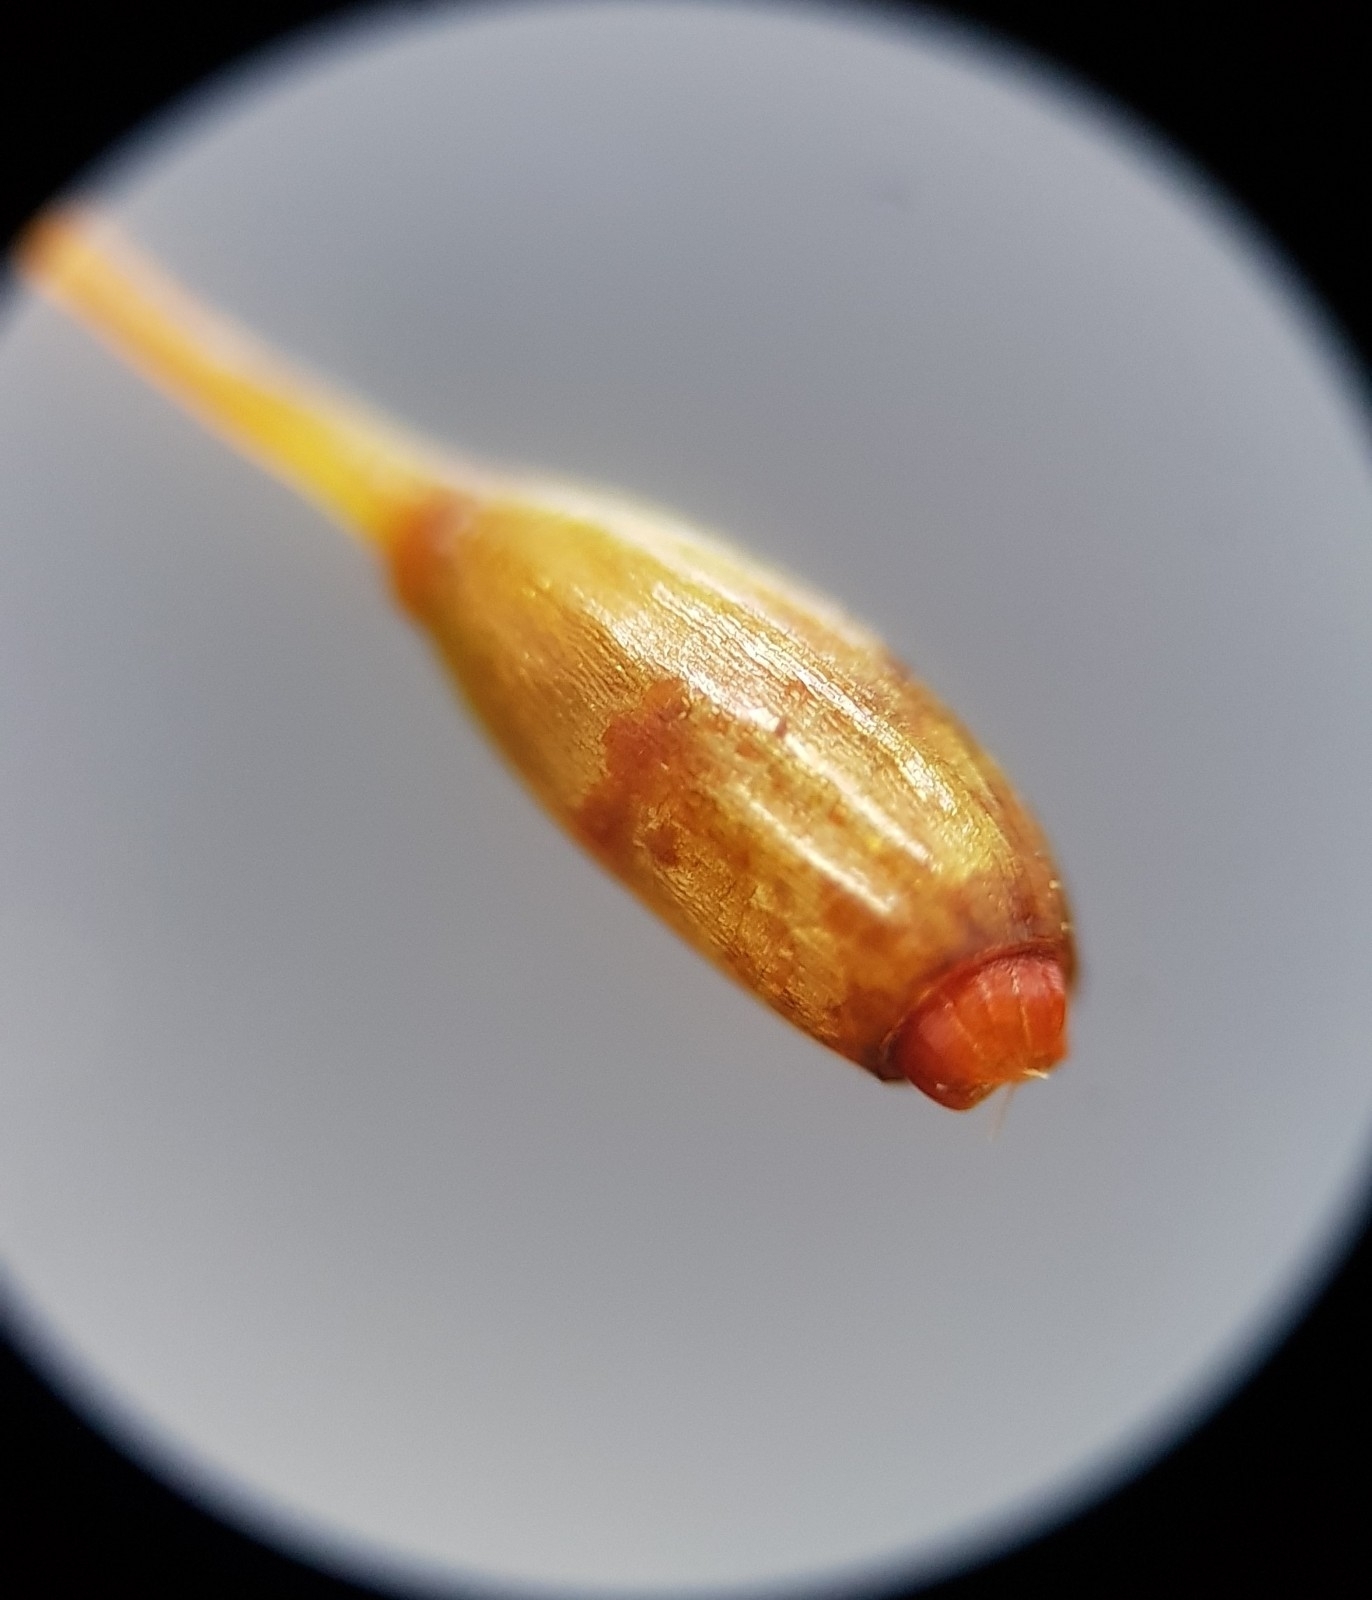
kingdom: Plantae
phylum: Bryophyta
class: Bryopsida
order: Dicranales
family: Leucobryaceae
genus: Campylopus
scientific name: Campylopus flexuosus
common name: Rusty swan-neck moss
